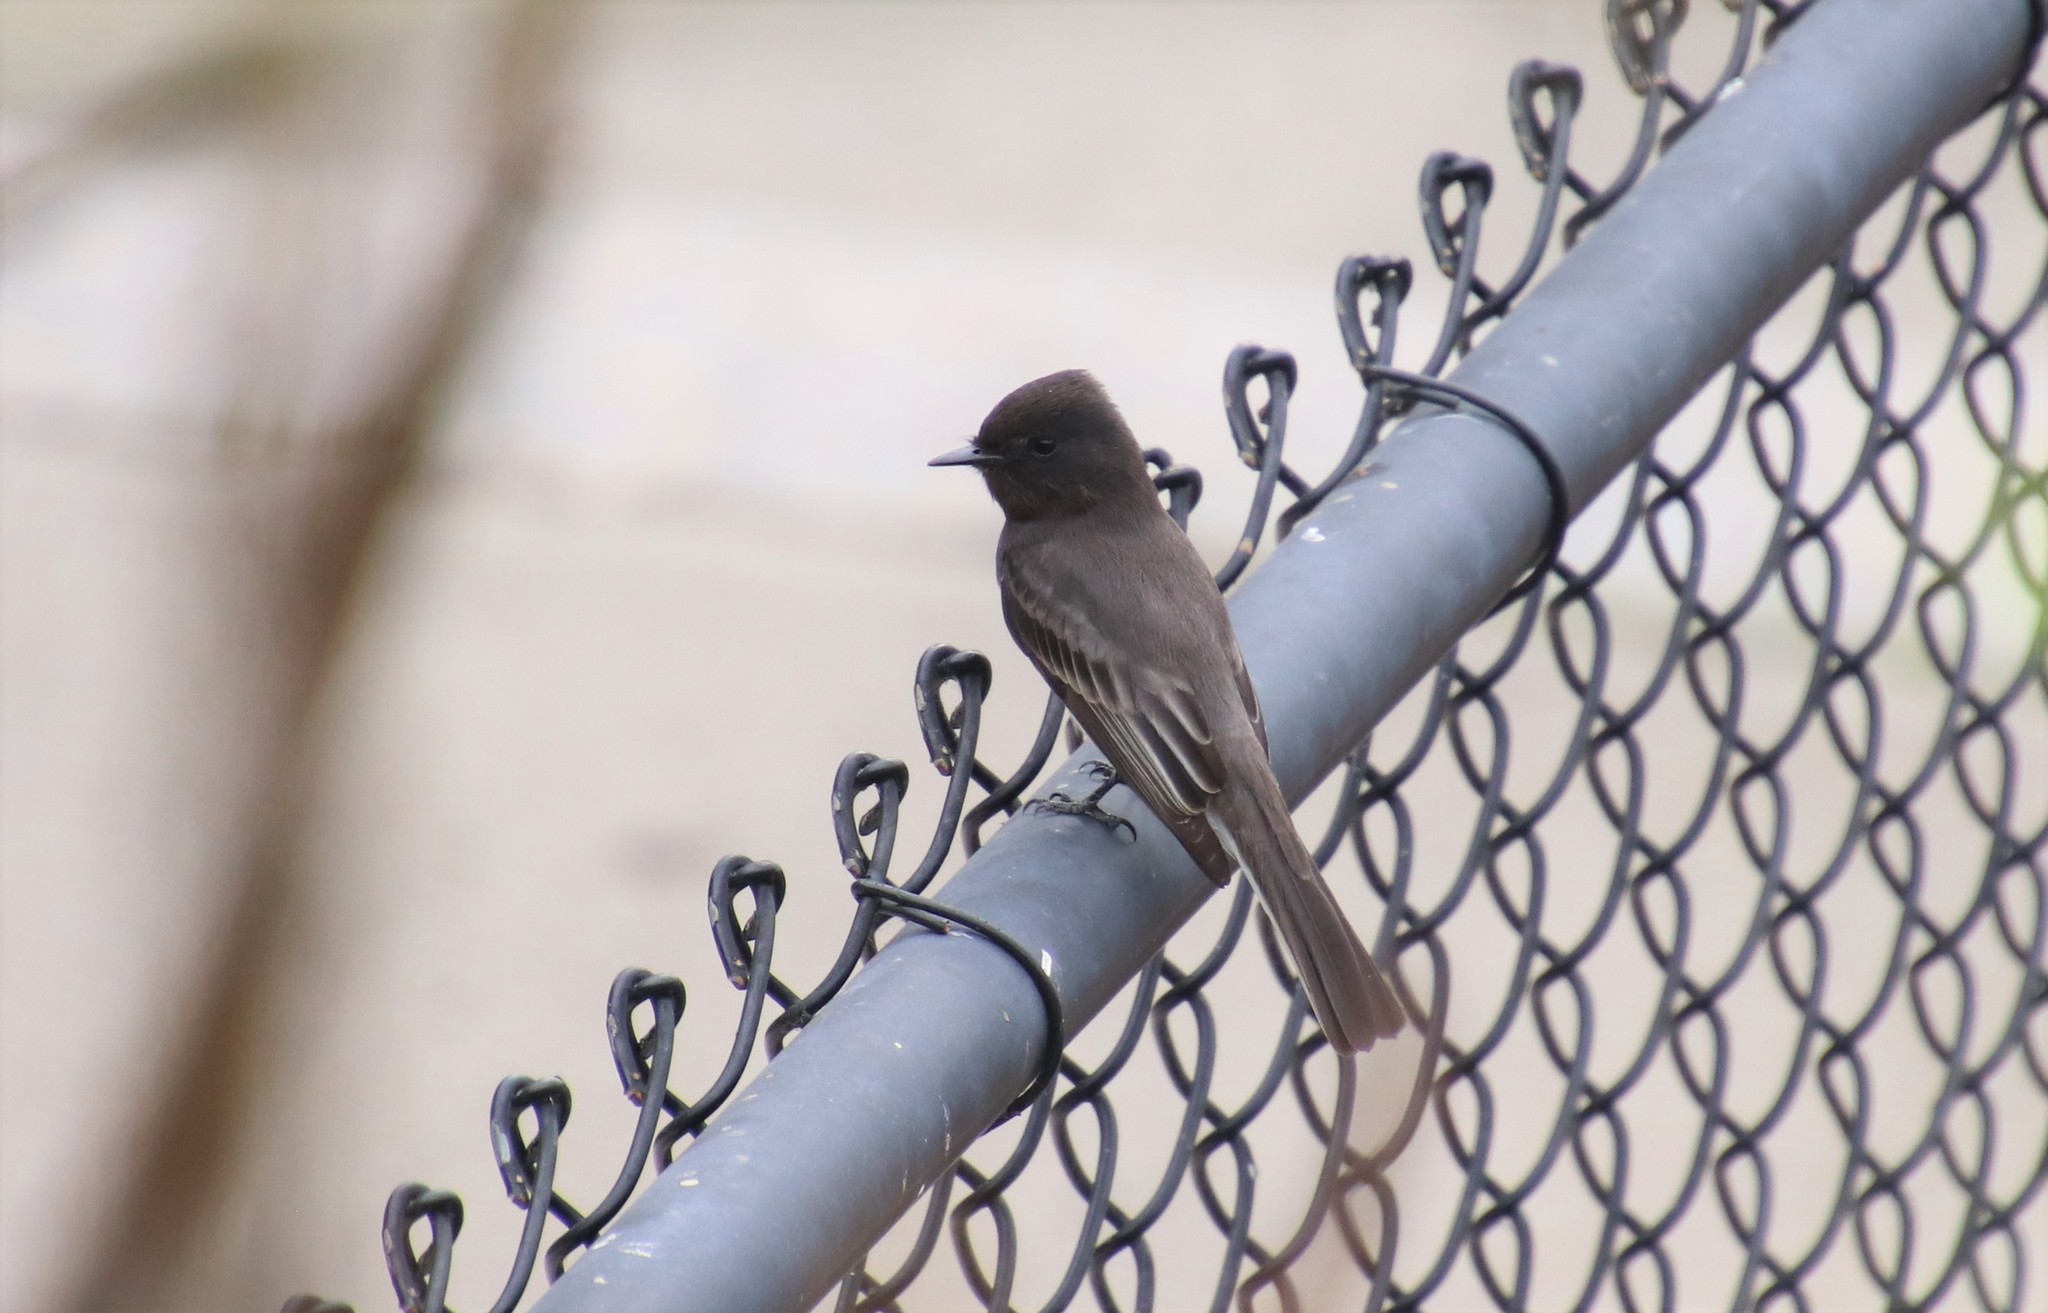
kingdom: Animalia
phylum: Chordata
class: Aves
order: Passeriformes
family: Tyrannidae
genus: Sayornis
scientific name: Sayornis nigricans
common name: Black phoebe
